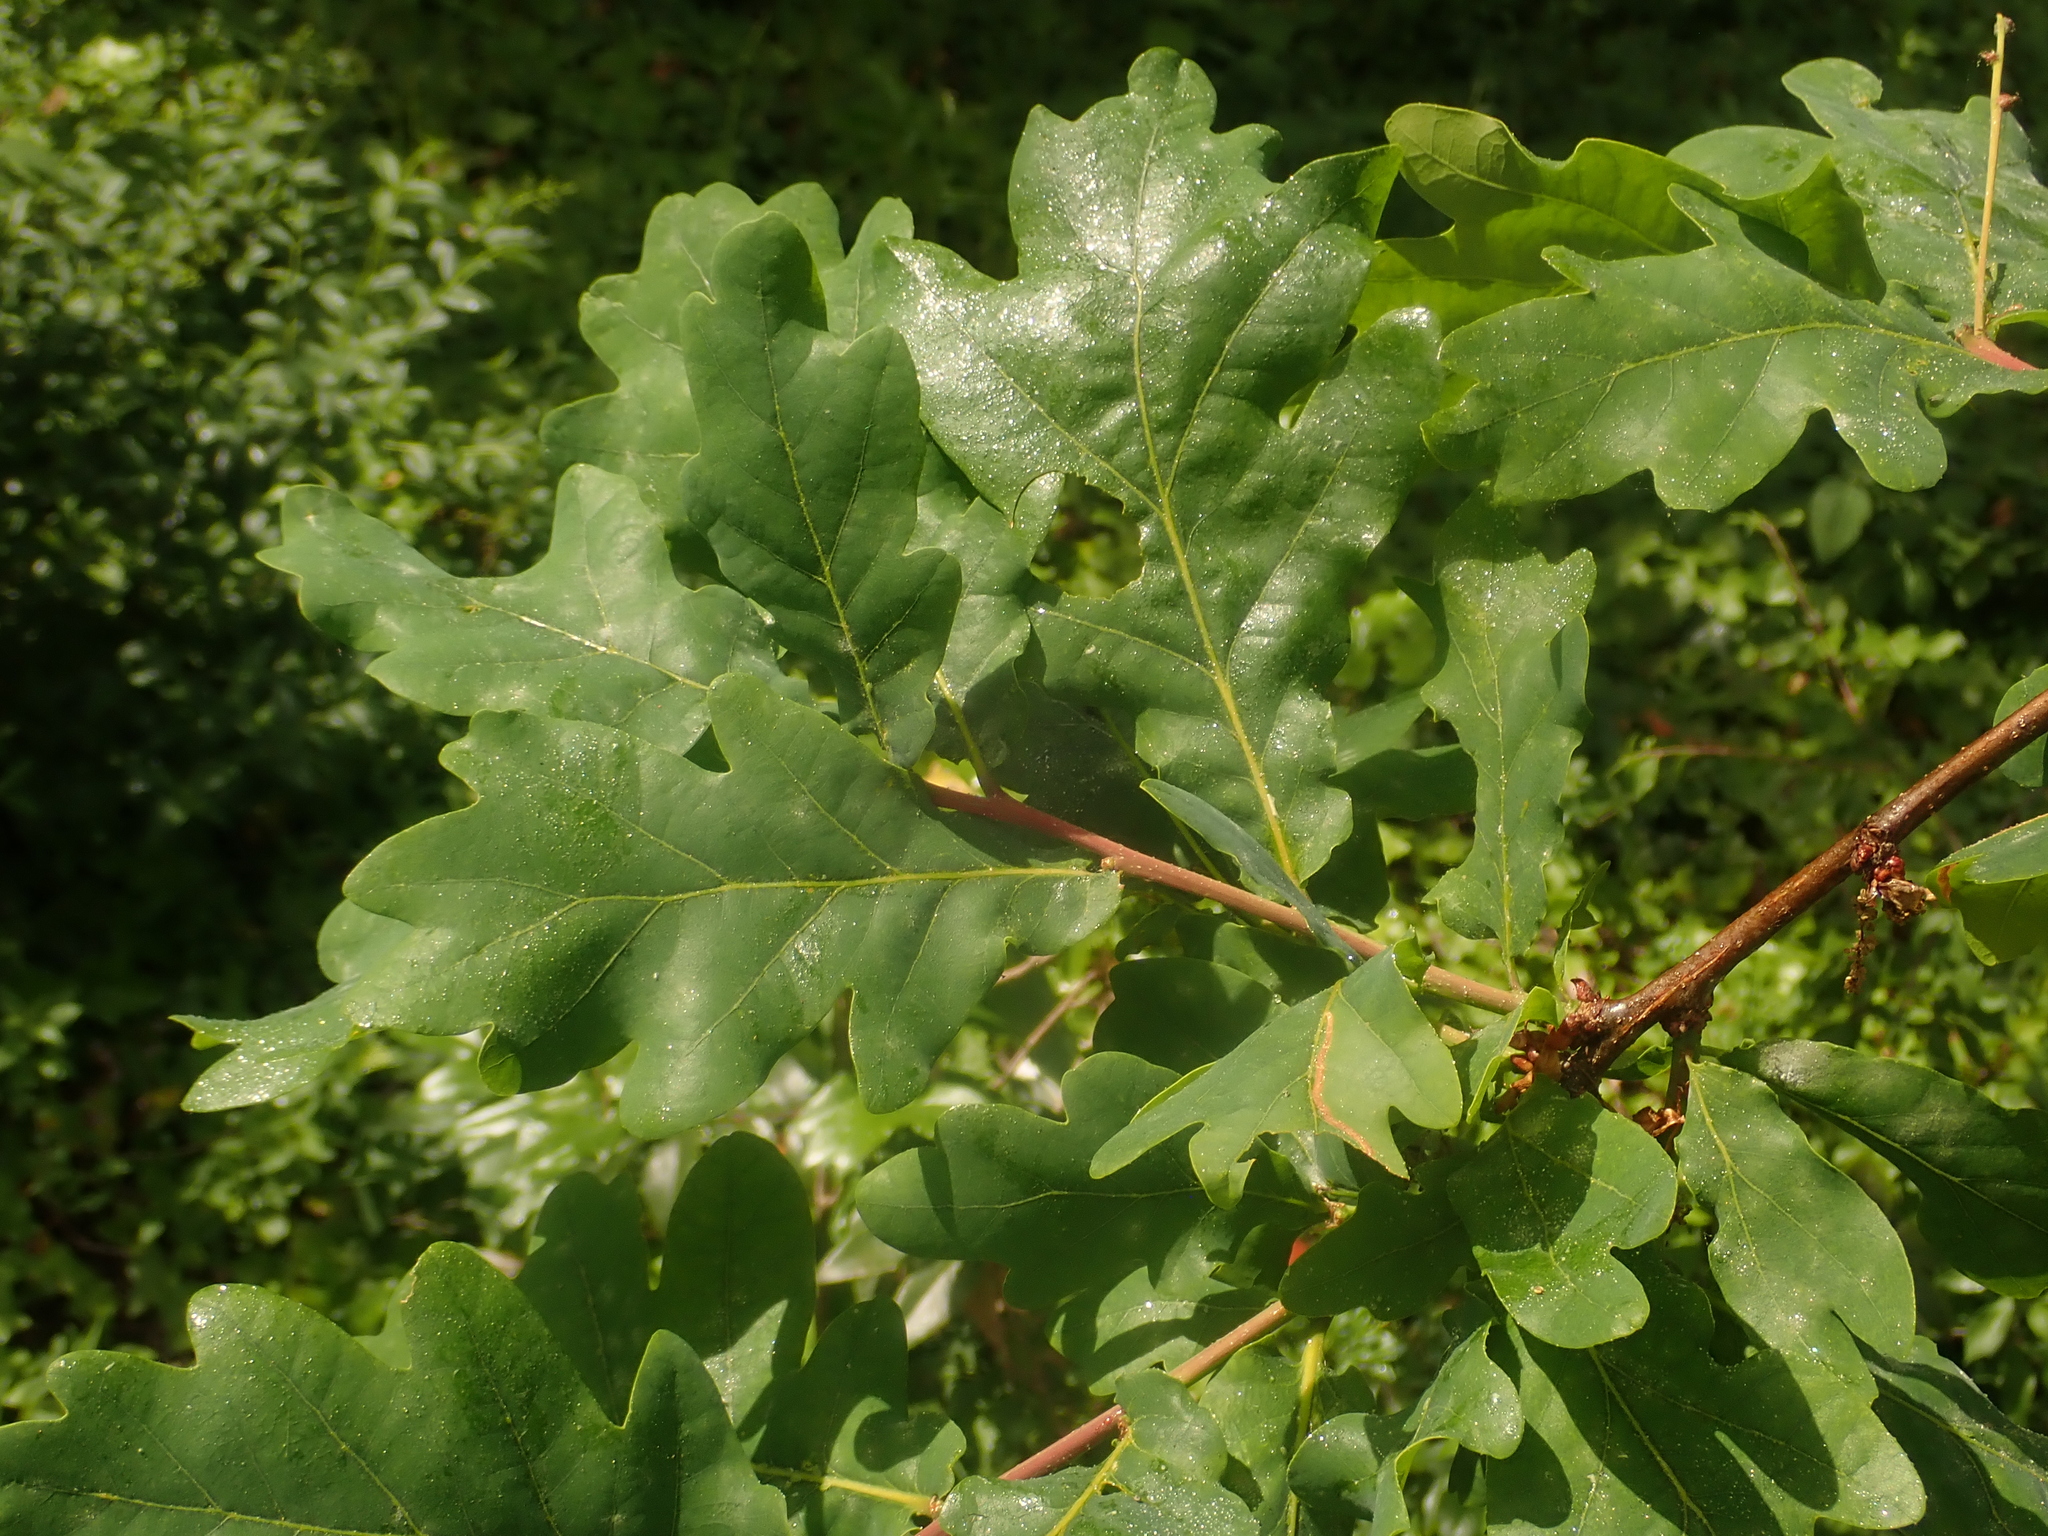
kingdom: Plantae
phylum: Tracheophyta
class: Magnoliopsida
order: Fagales
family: Fagaceae
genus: Quercus
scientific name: Quercus robur
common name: Pedunculate oak
